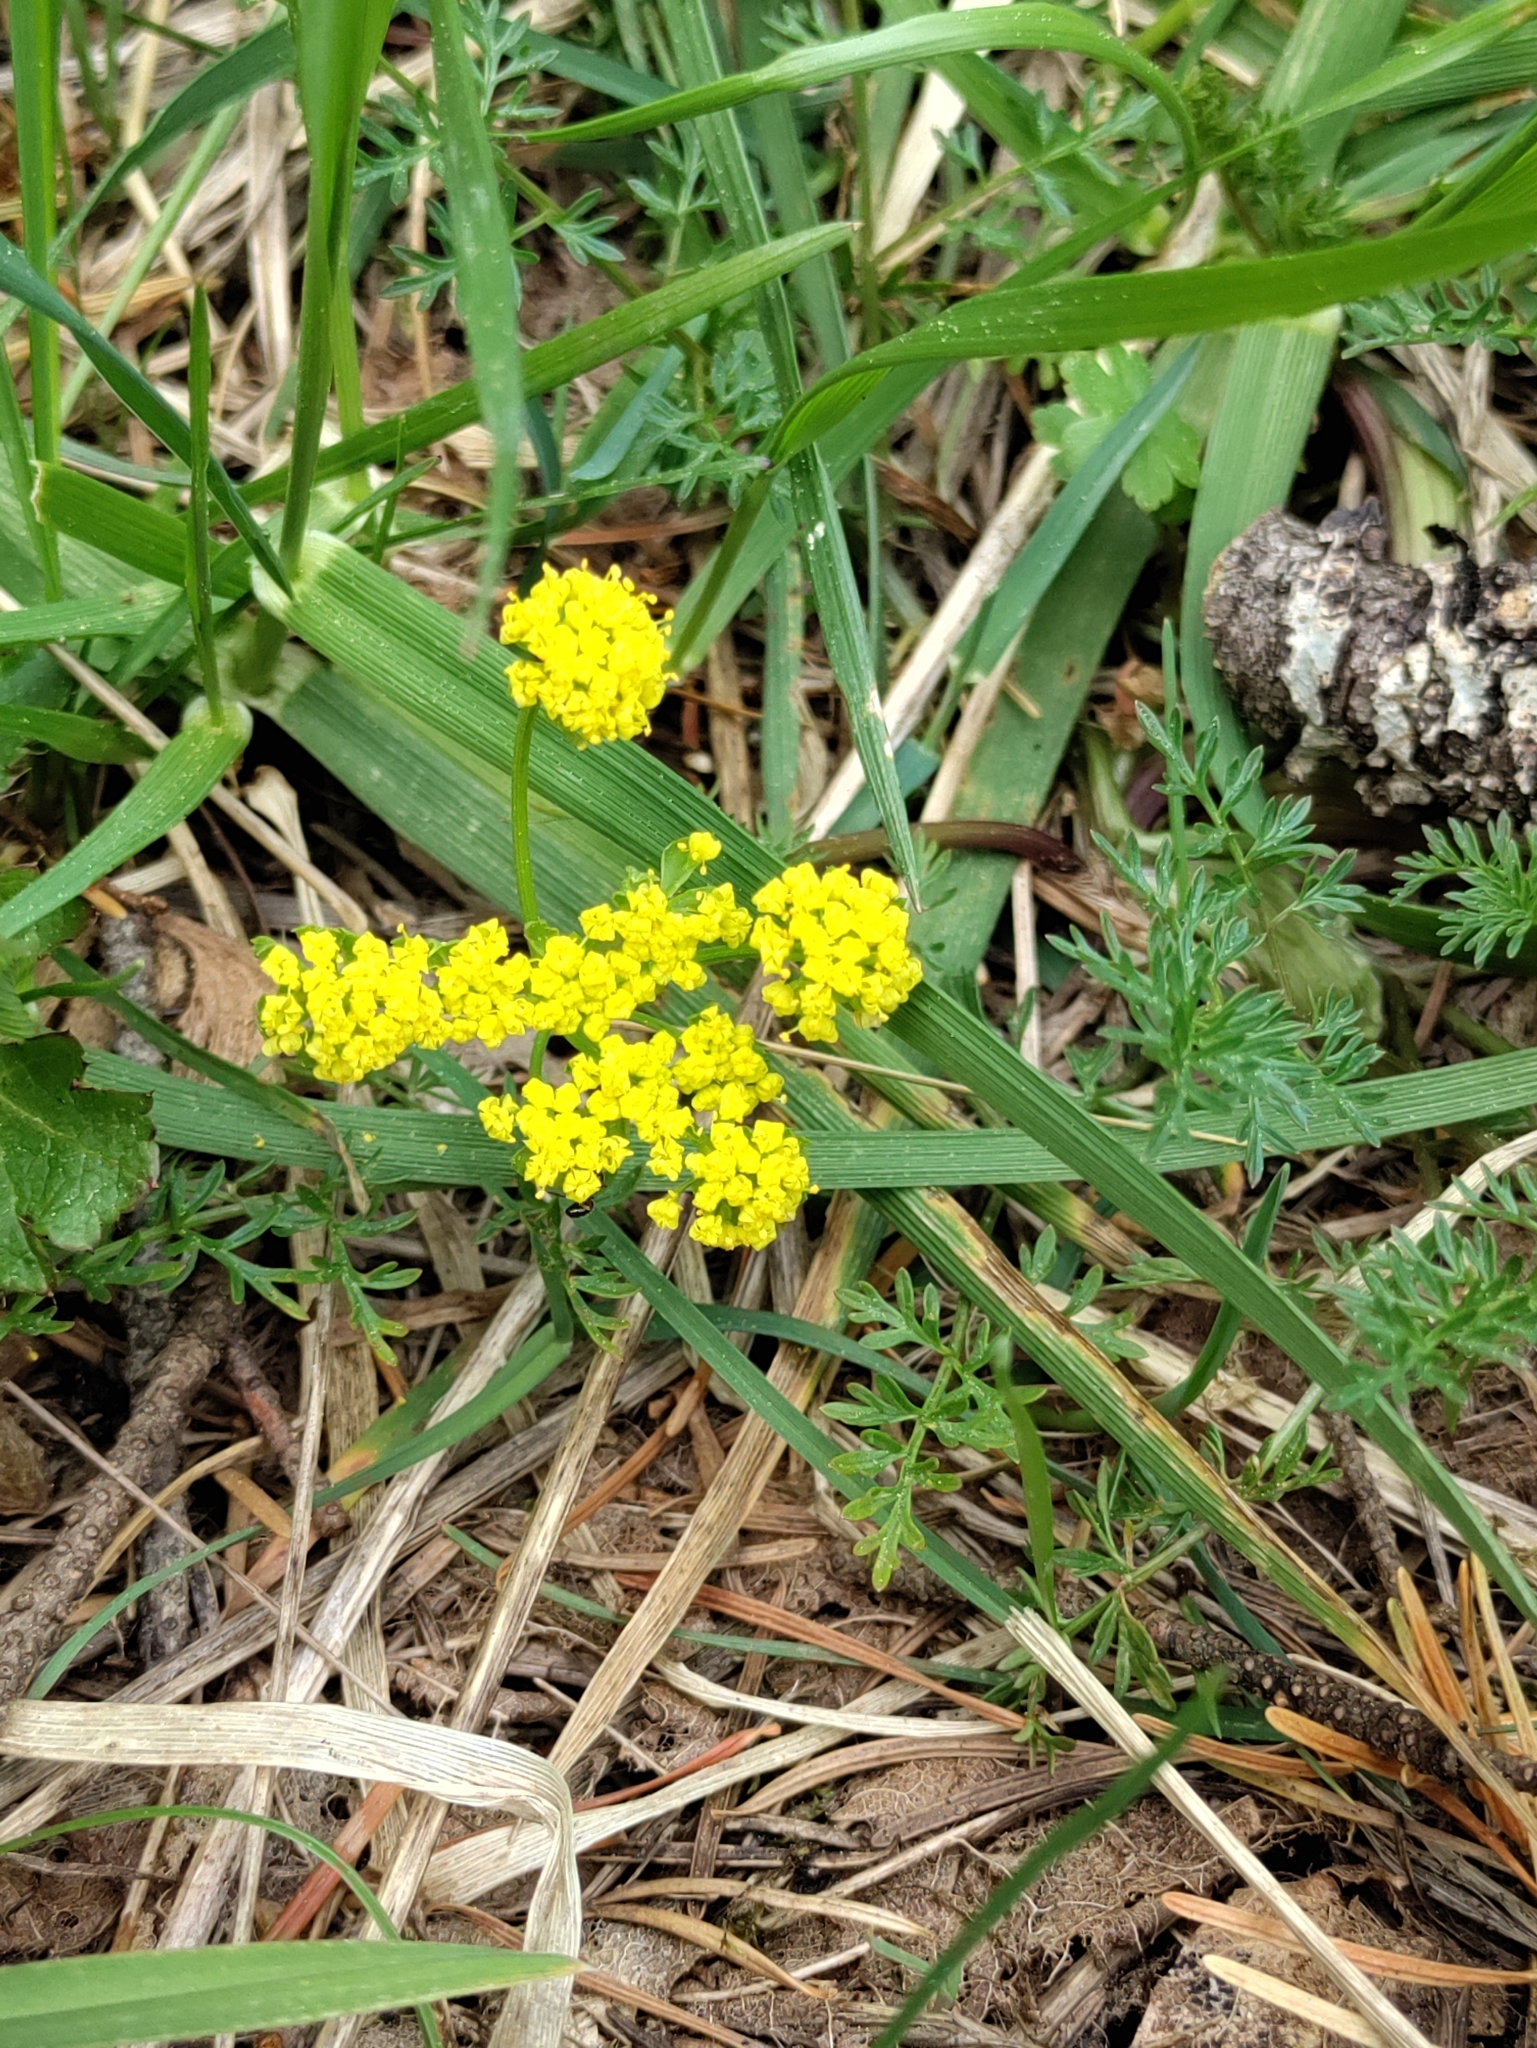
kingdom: Plantae
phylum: Tracheophyta
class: Magnoliopsida
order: Apiales
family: Apiaceae
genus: Lomatium
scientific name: Lomatium utriculatum
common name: Fine-leaf desert-parsley
